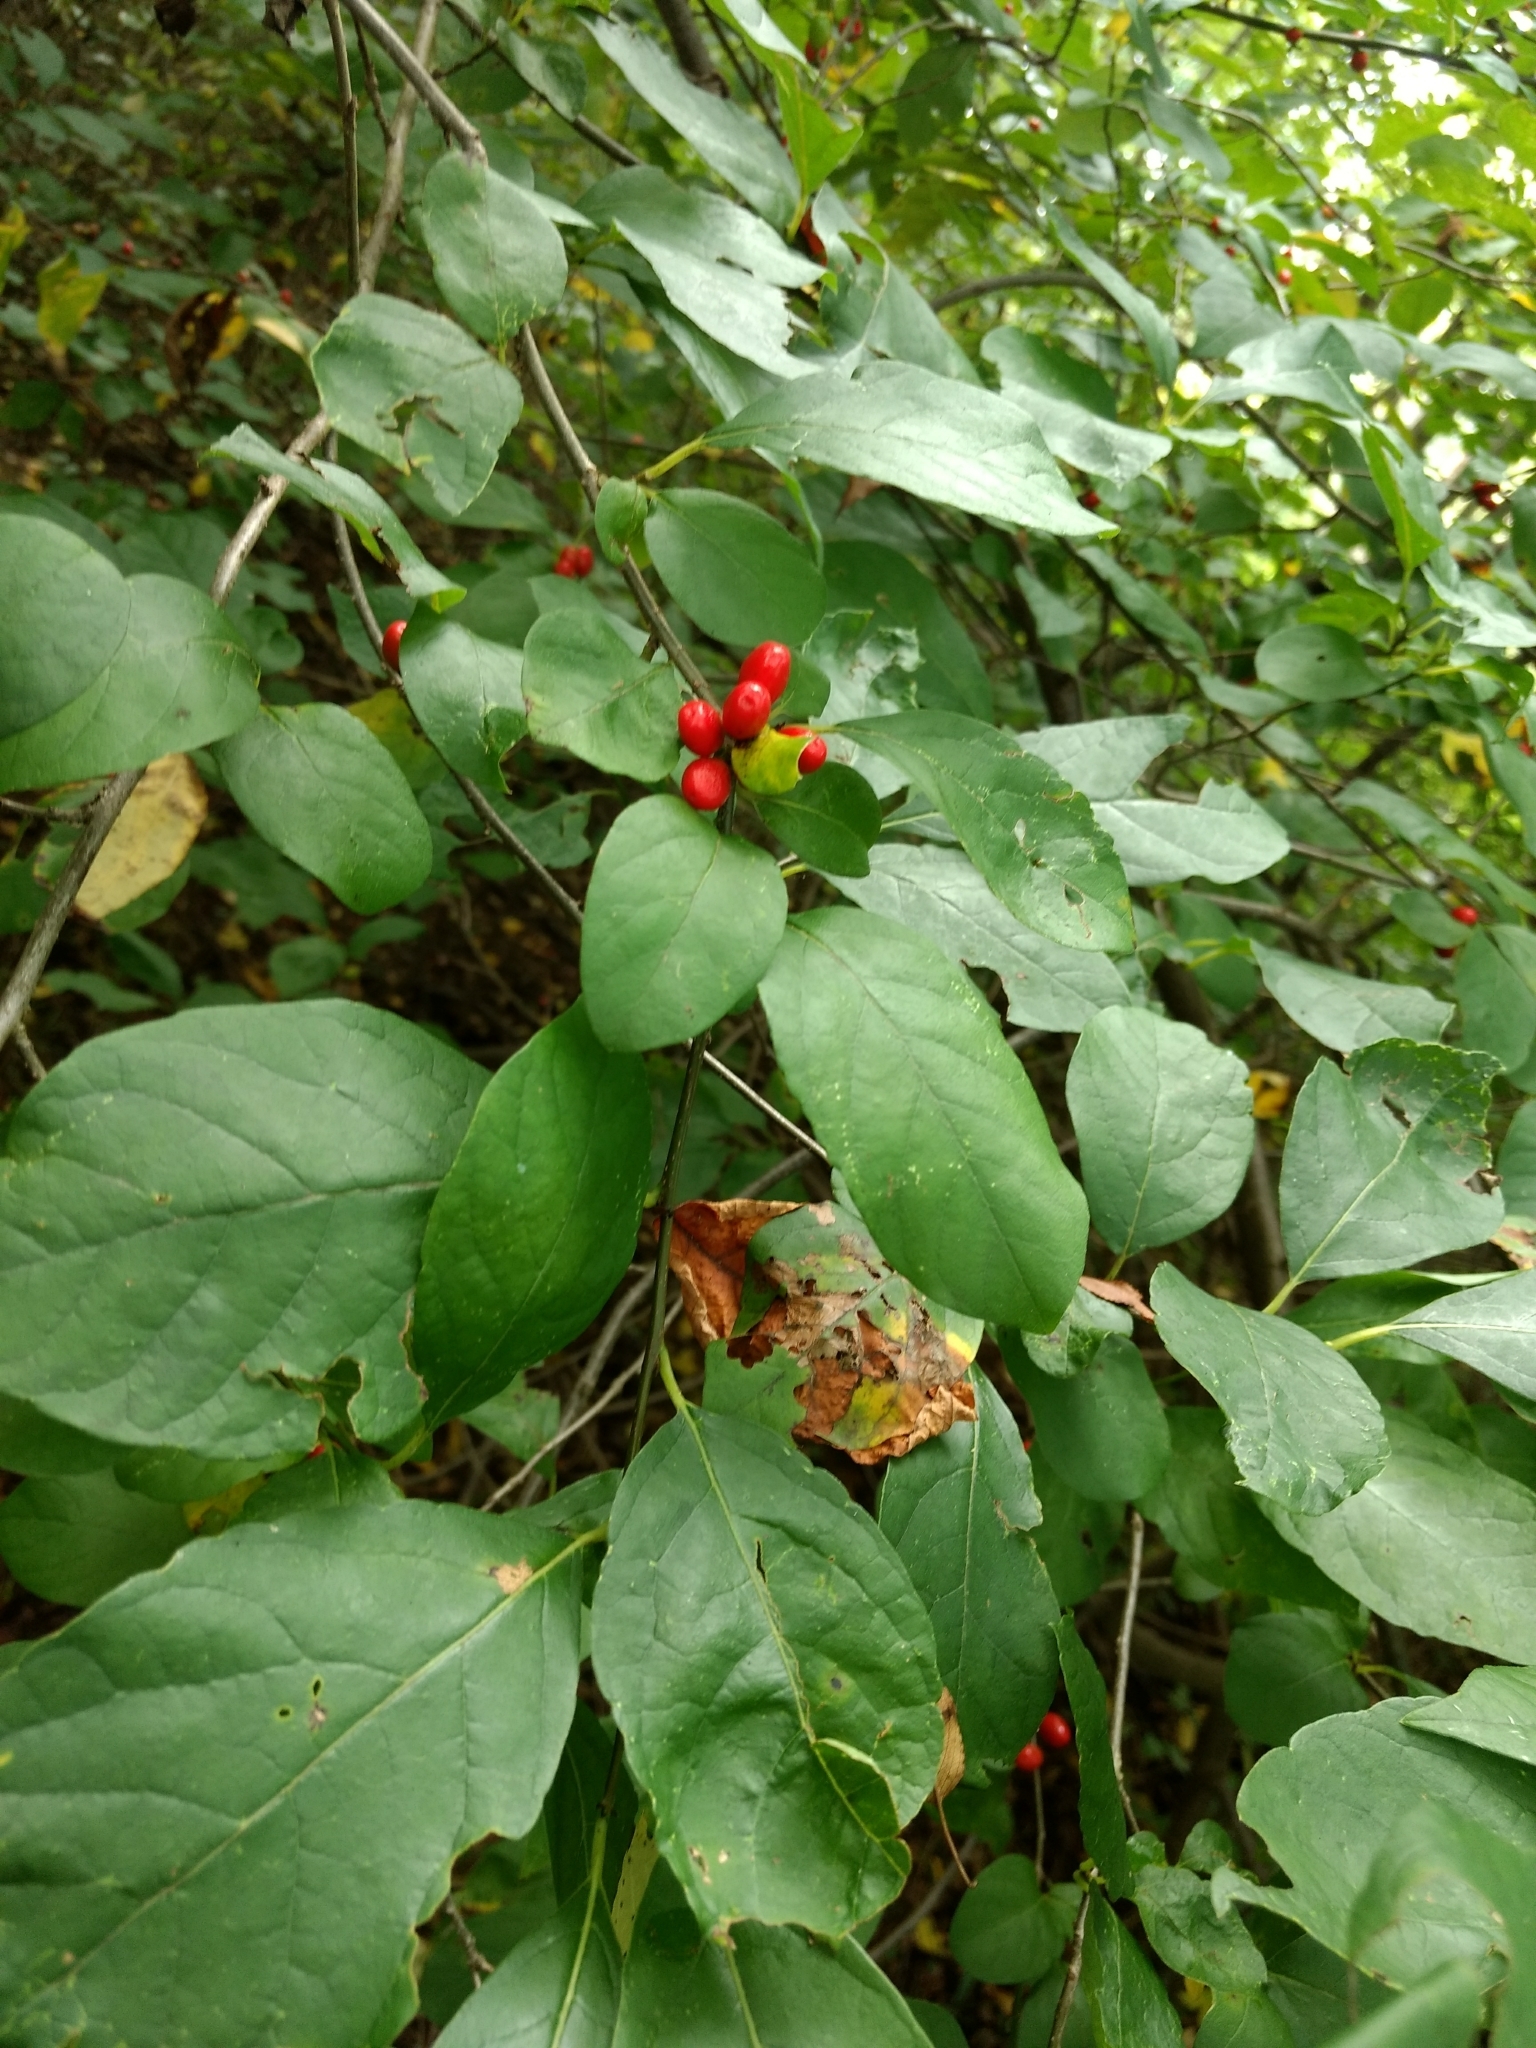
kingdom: Plantae
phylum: Tracheophyta
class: Magnoliopsida
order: Laurales
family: Lauraceae
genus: Lindera
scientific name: Lindera benzoin
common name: Spicebush
